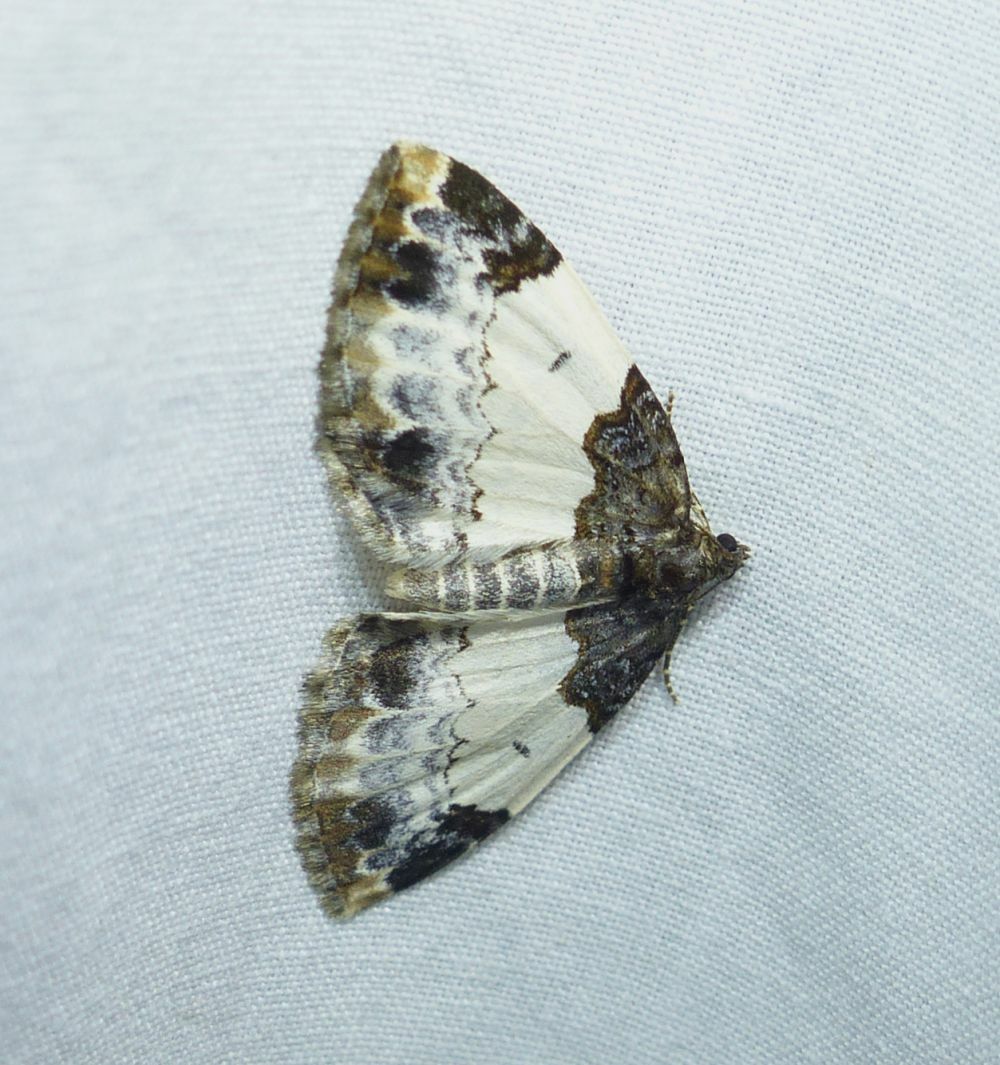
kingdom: Animalia
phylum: Arthropoda
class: Insecta
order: Lepidoptera
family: Geometridae
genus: Mesoleuca
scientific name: Mesoleuca ruficillata
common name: White-ribboned carpet moth
